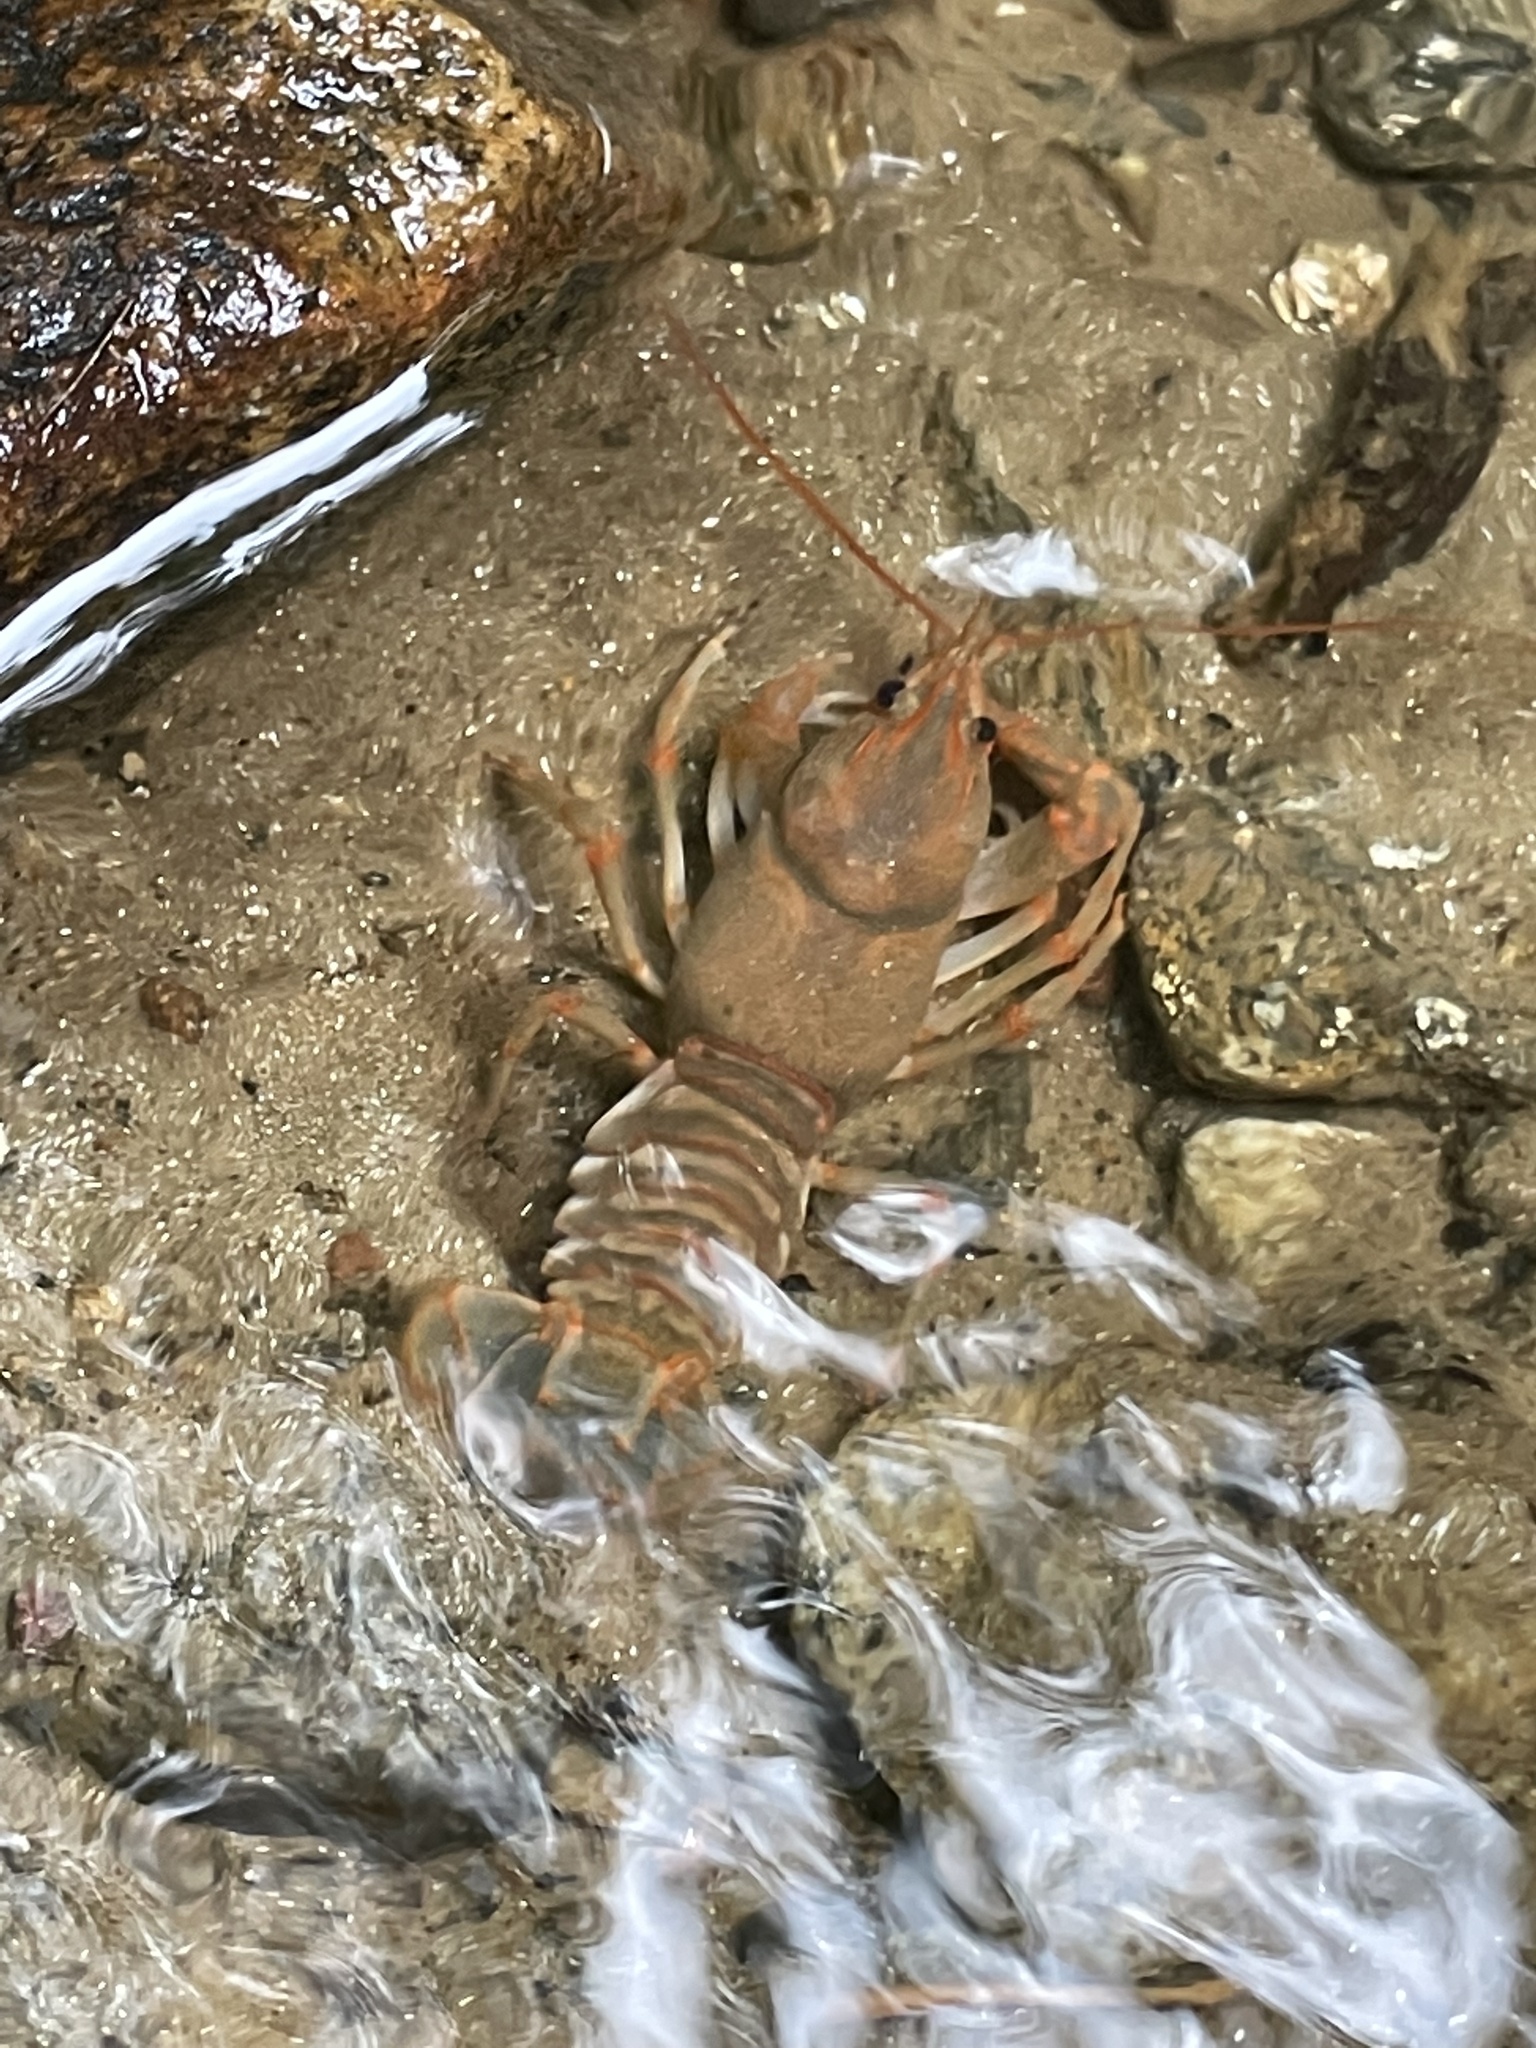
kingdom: Animalia
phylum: Arthropoda
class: Malacostraca
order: Decapoda
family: Cambaridae
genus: Cambarus
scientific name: Cambarus fasciatus
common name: Etowah crayfish
